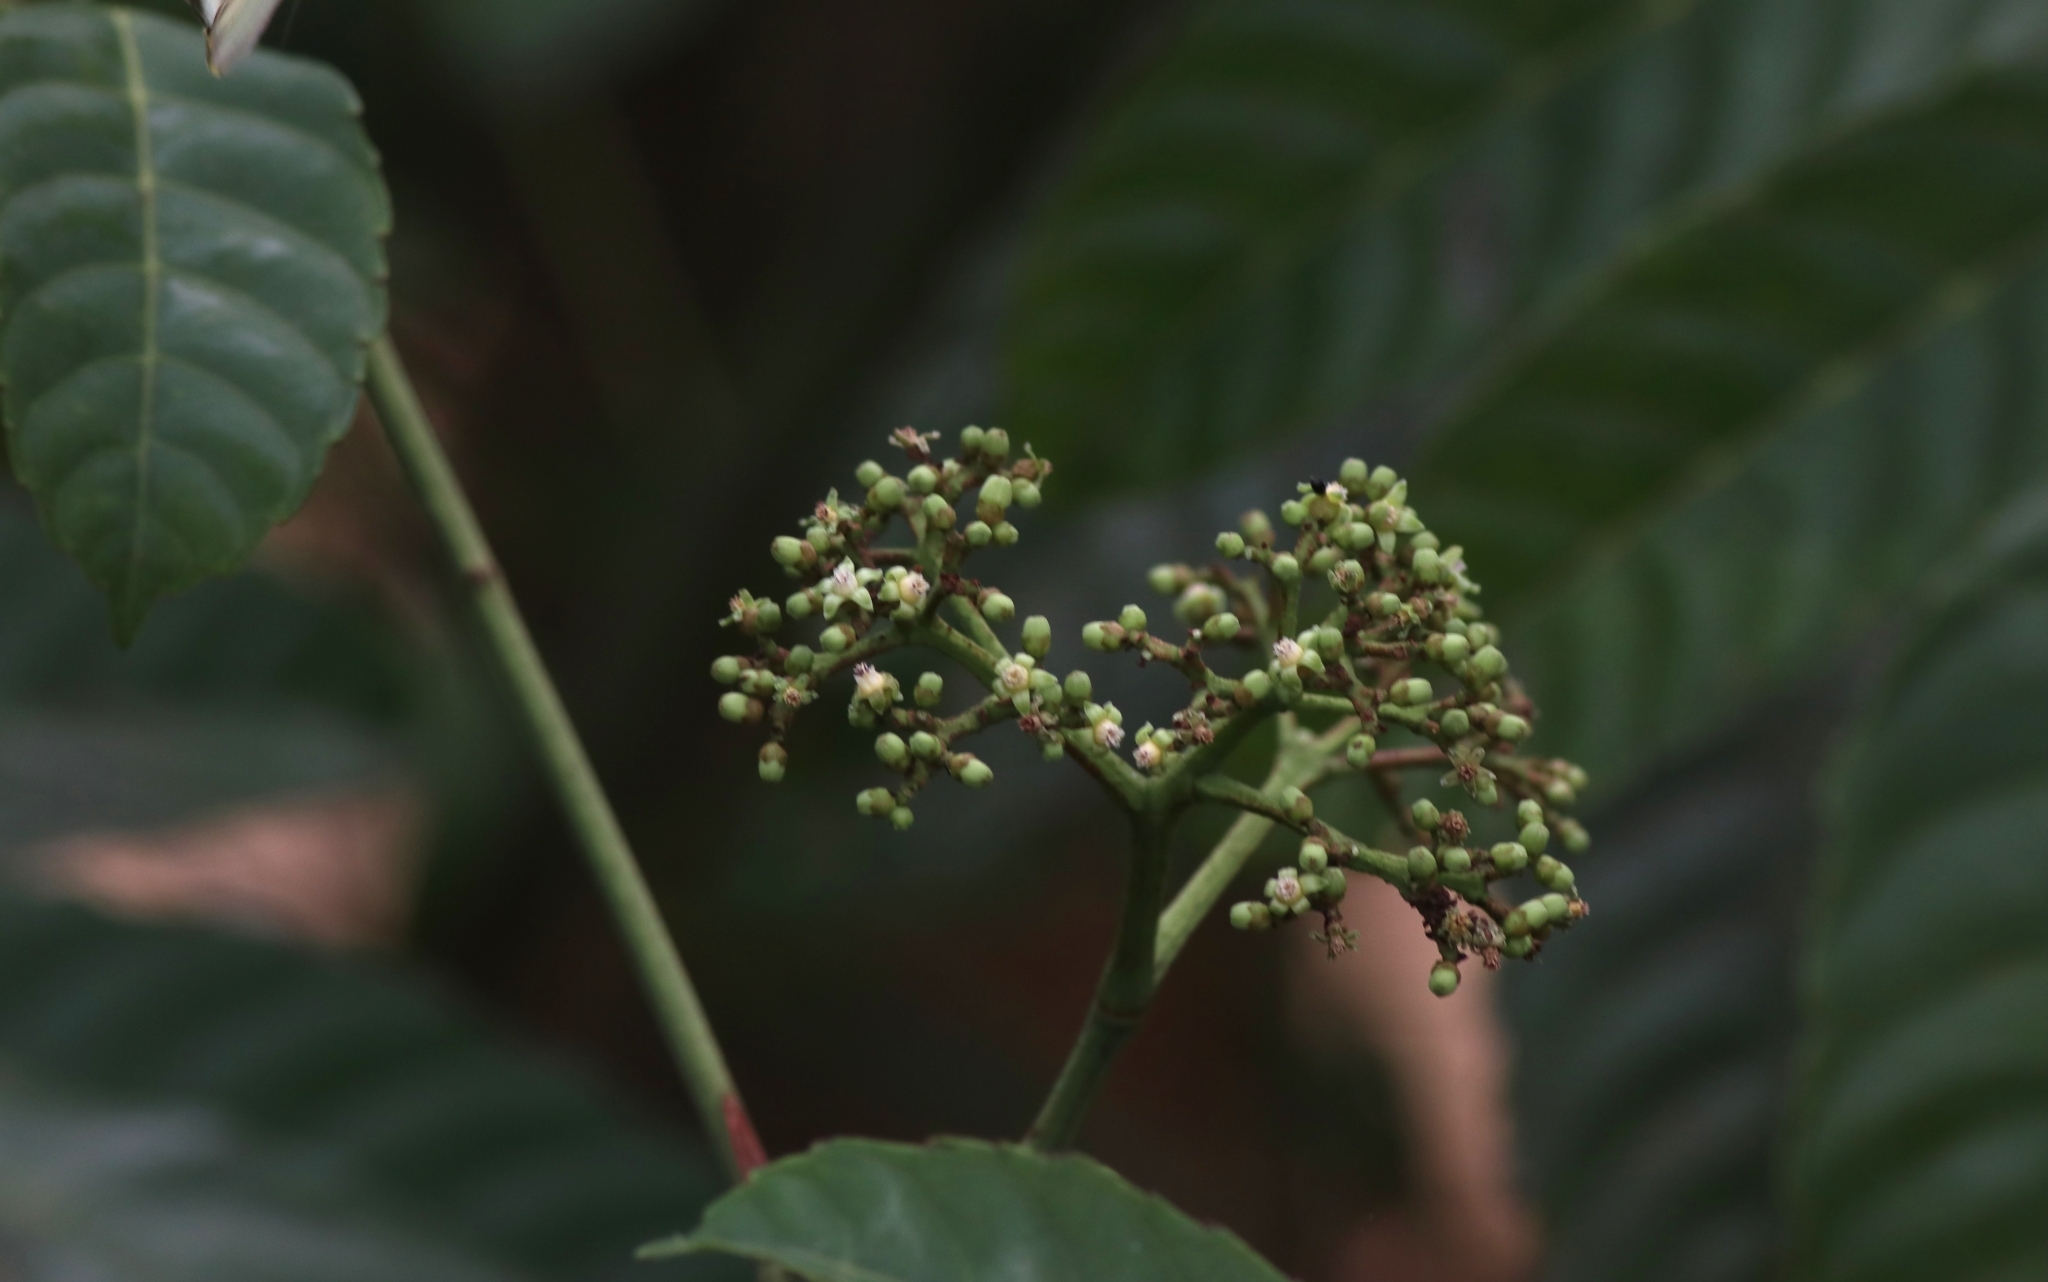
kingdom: Plantae
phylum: Tracheophyta
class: Magnoliopsida
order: Vitales
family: Vitaceae
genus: Leea
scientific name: Leea indica
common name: Bandicoot-berry
